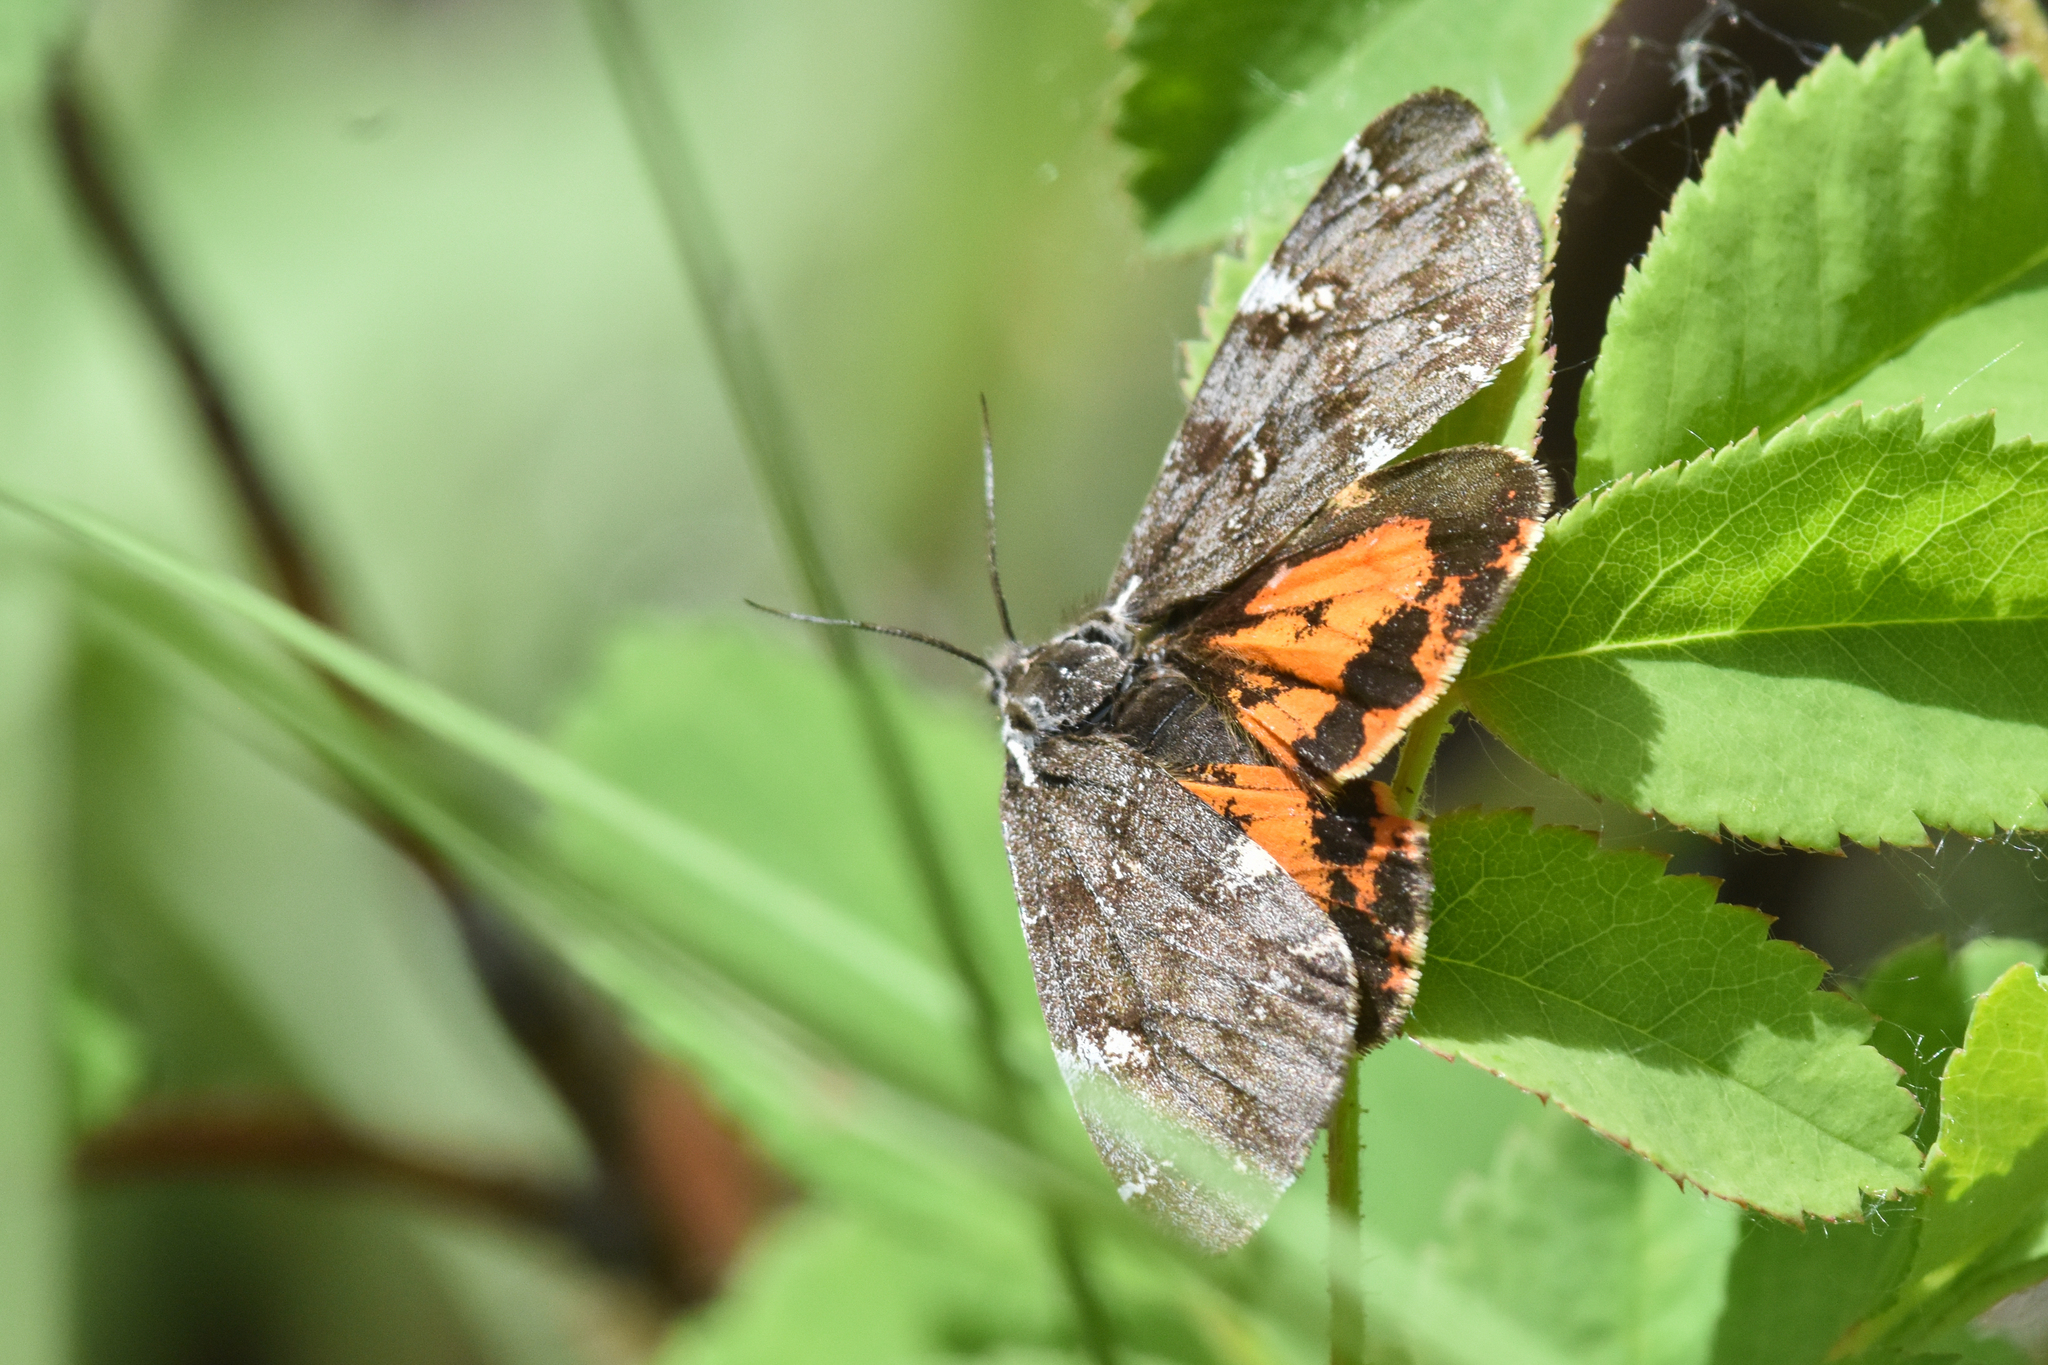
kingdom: Animalia
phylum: Arthropoda
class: Insecta
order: Lepidoptera
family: Erebidae
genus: Leptarctia
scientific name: Leptarctia californiae
